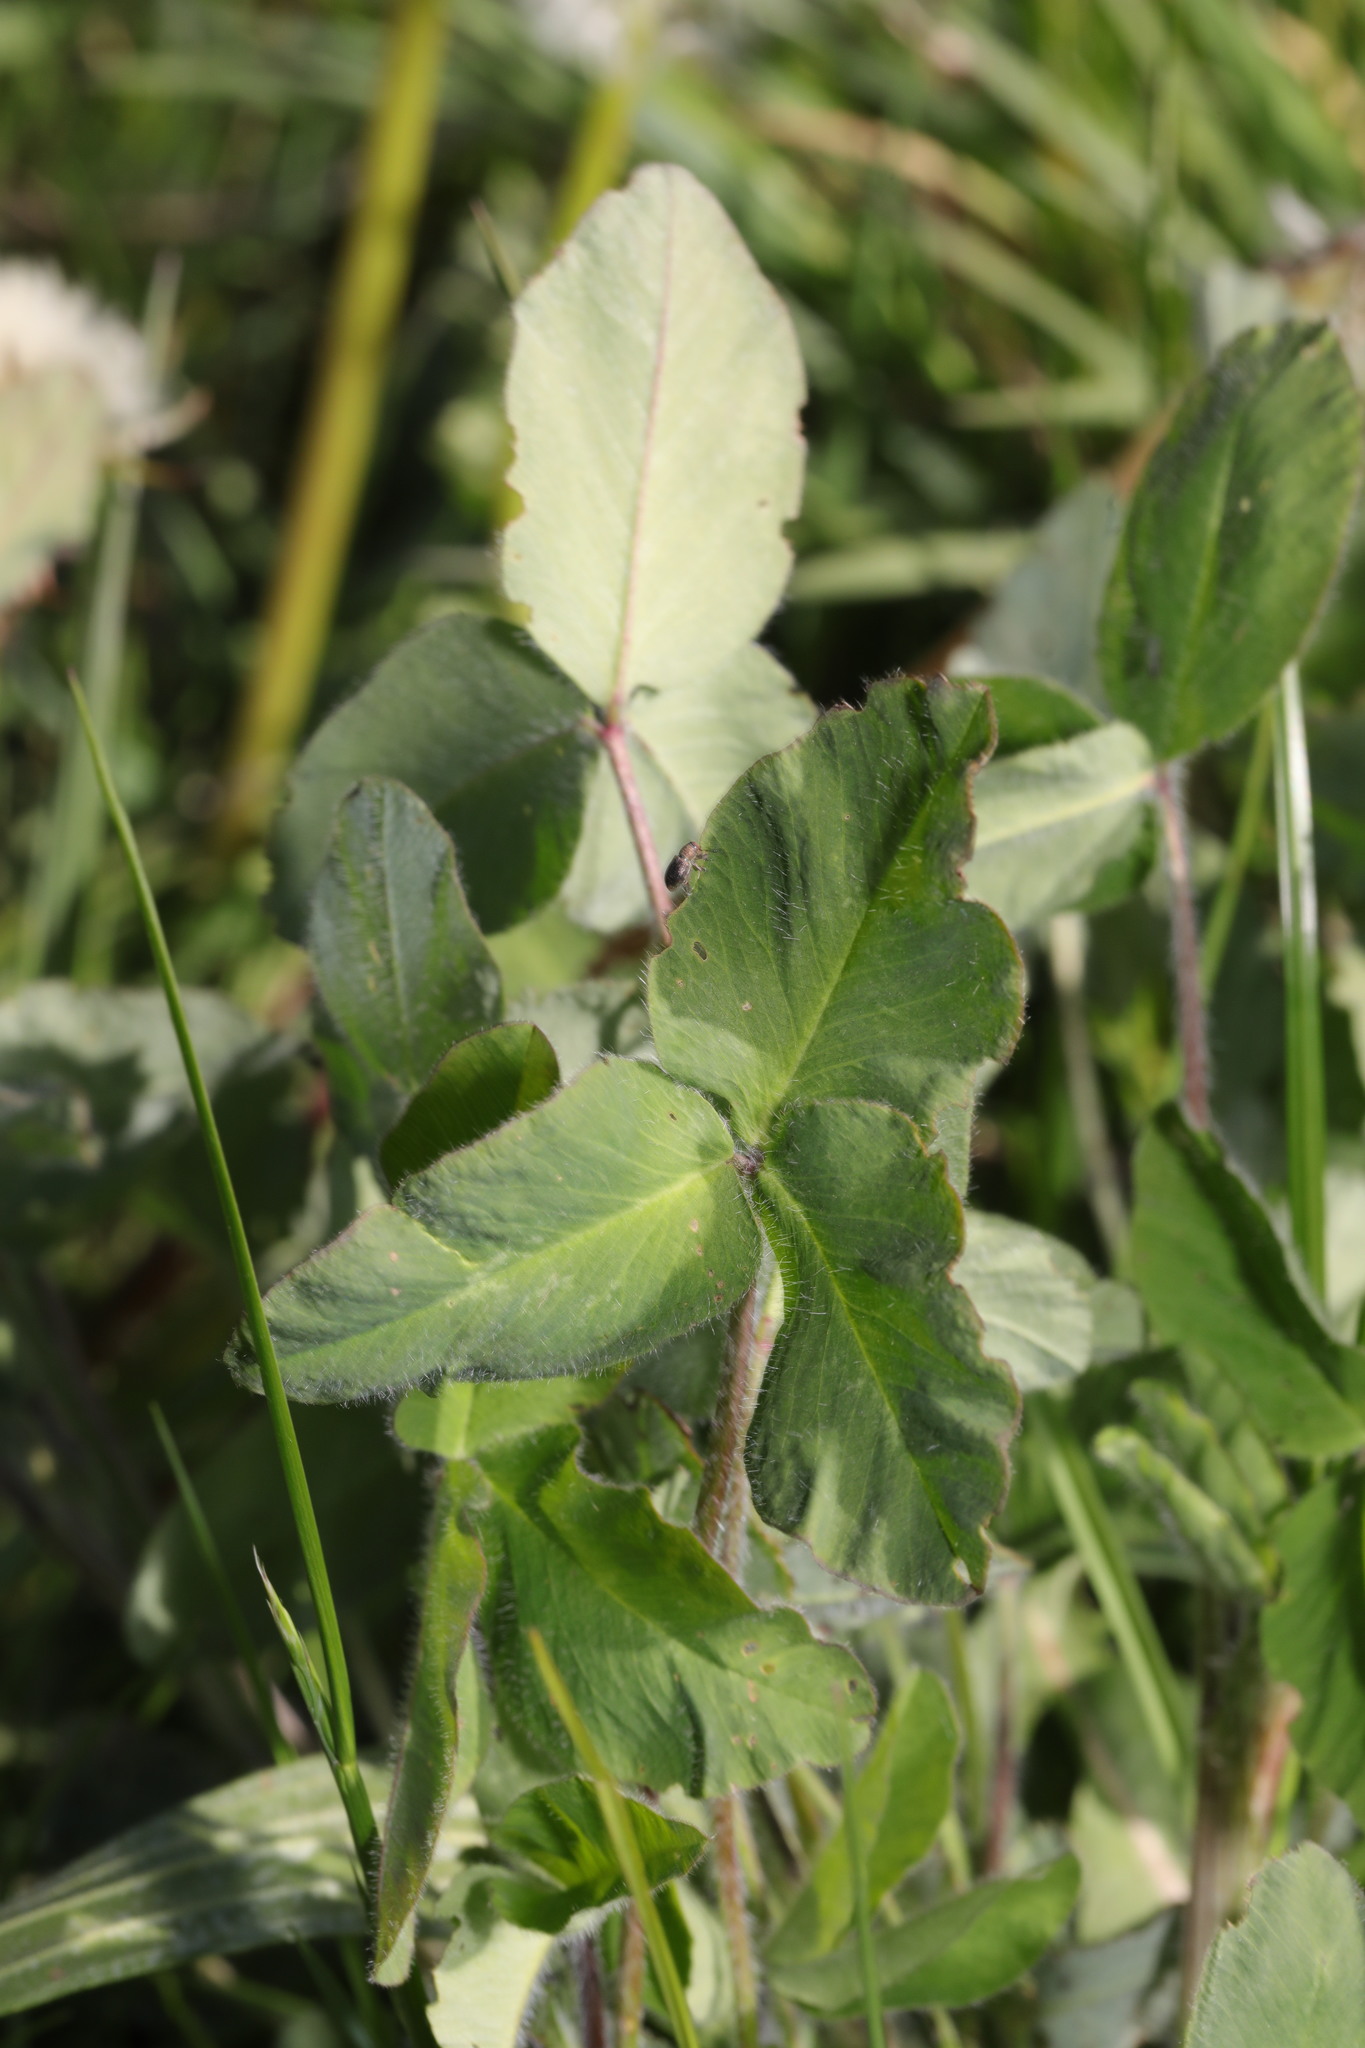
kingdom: Plantae
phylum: Tracheophyta
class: Magnoliopsida
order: Fabales
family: Fabaceae
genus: Trifolium
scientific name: Trifolium pratense
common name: Red clover
